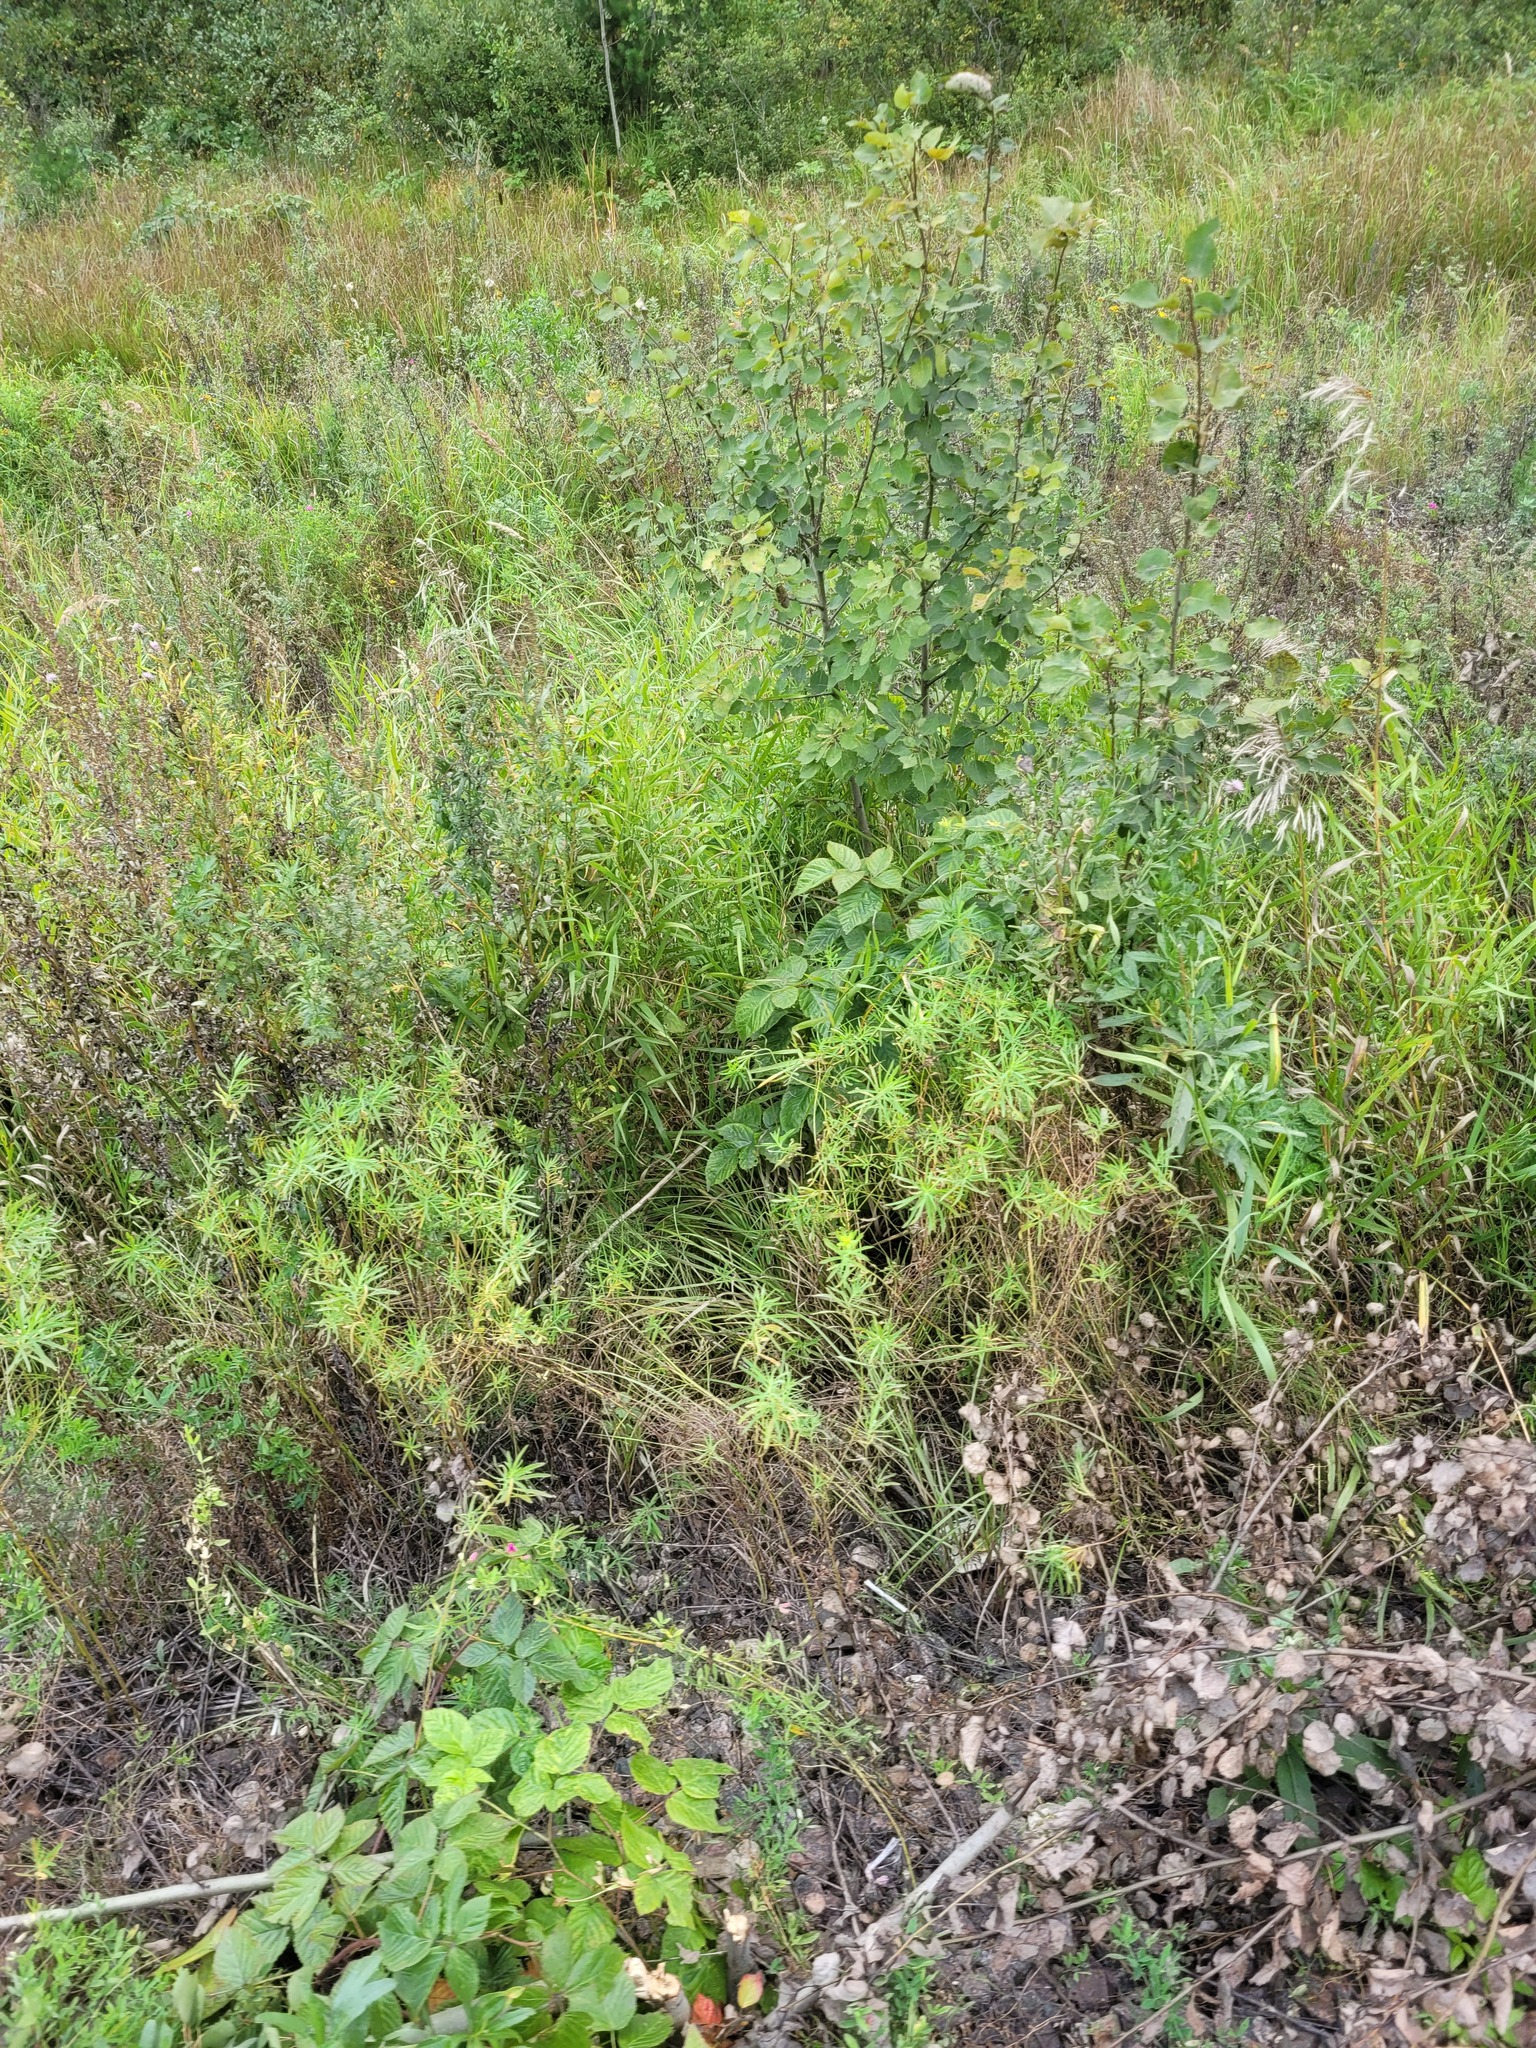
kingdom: Plantae
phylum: Tracheophyta
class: Magnoliopsida
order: Malpighiales
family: Euphorbiaceae
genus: Euphorbia
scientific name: Euphorbia virgata
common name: Leafy spurge
